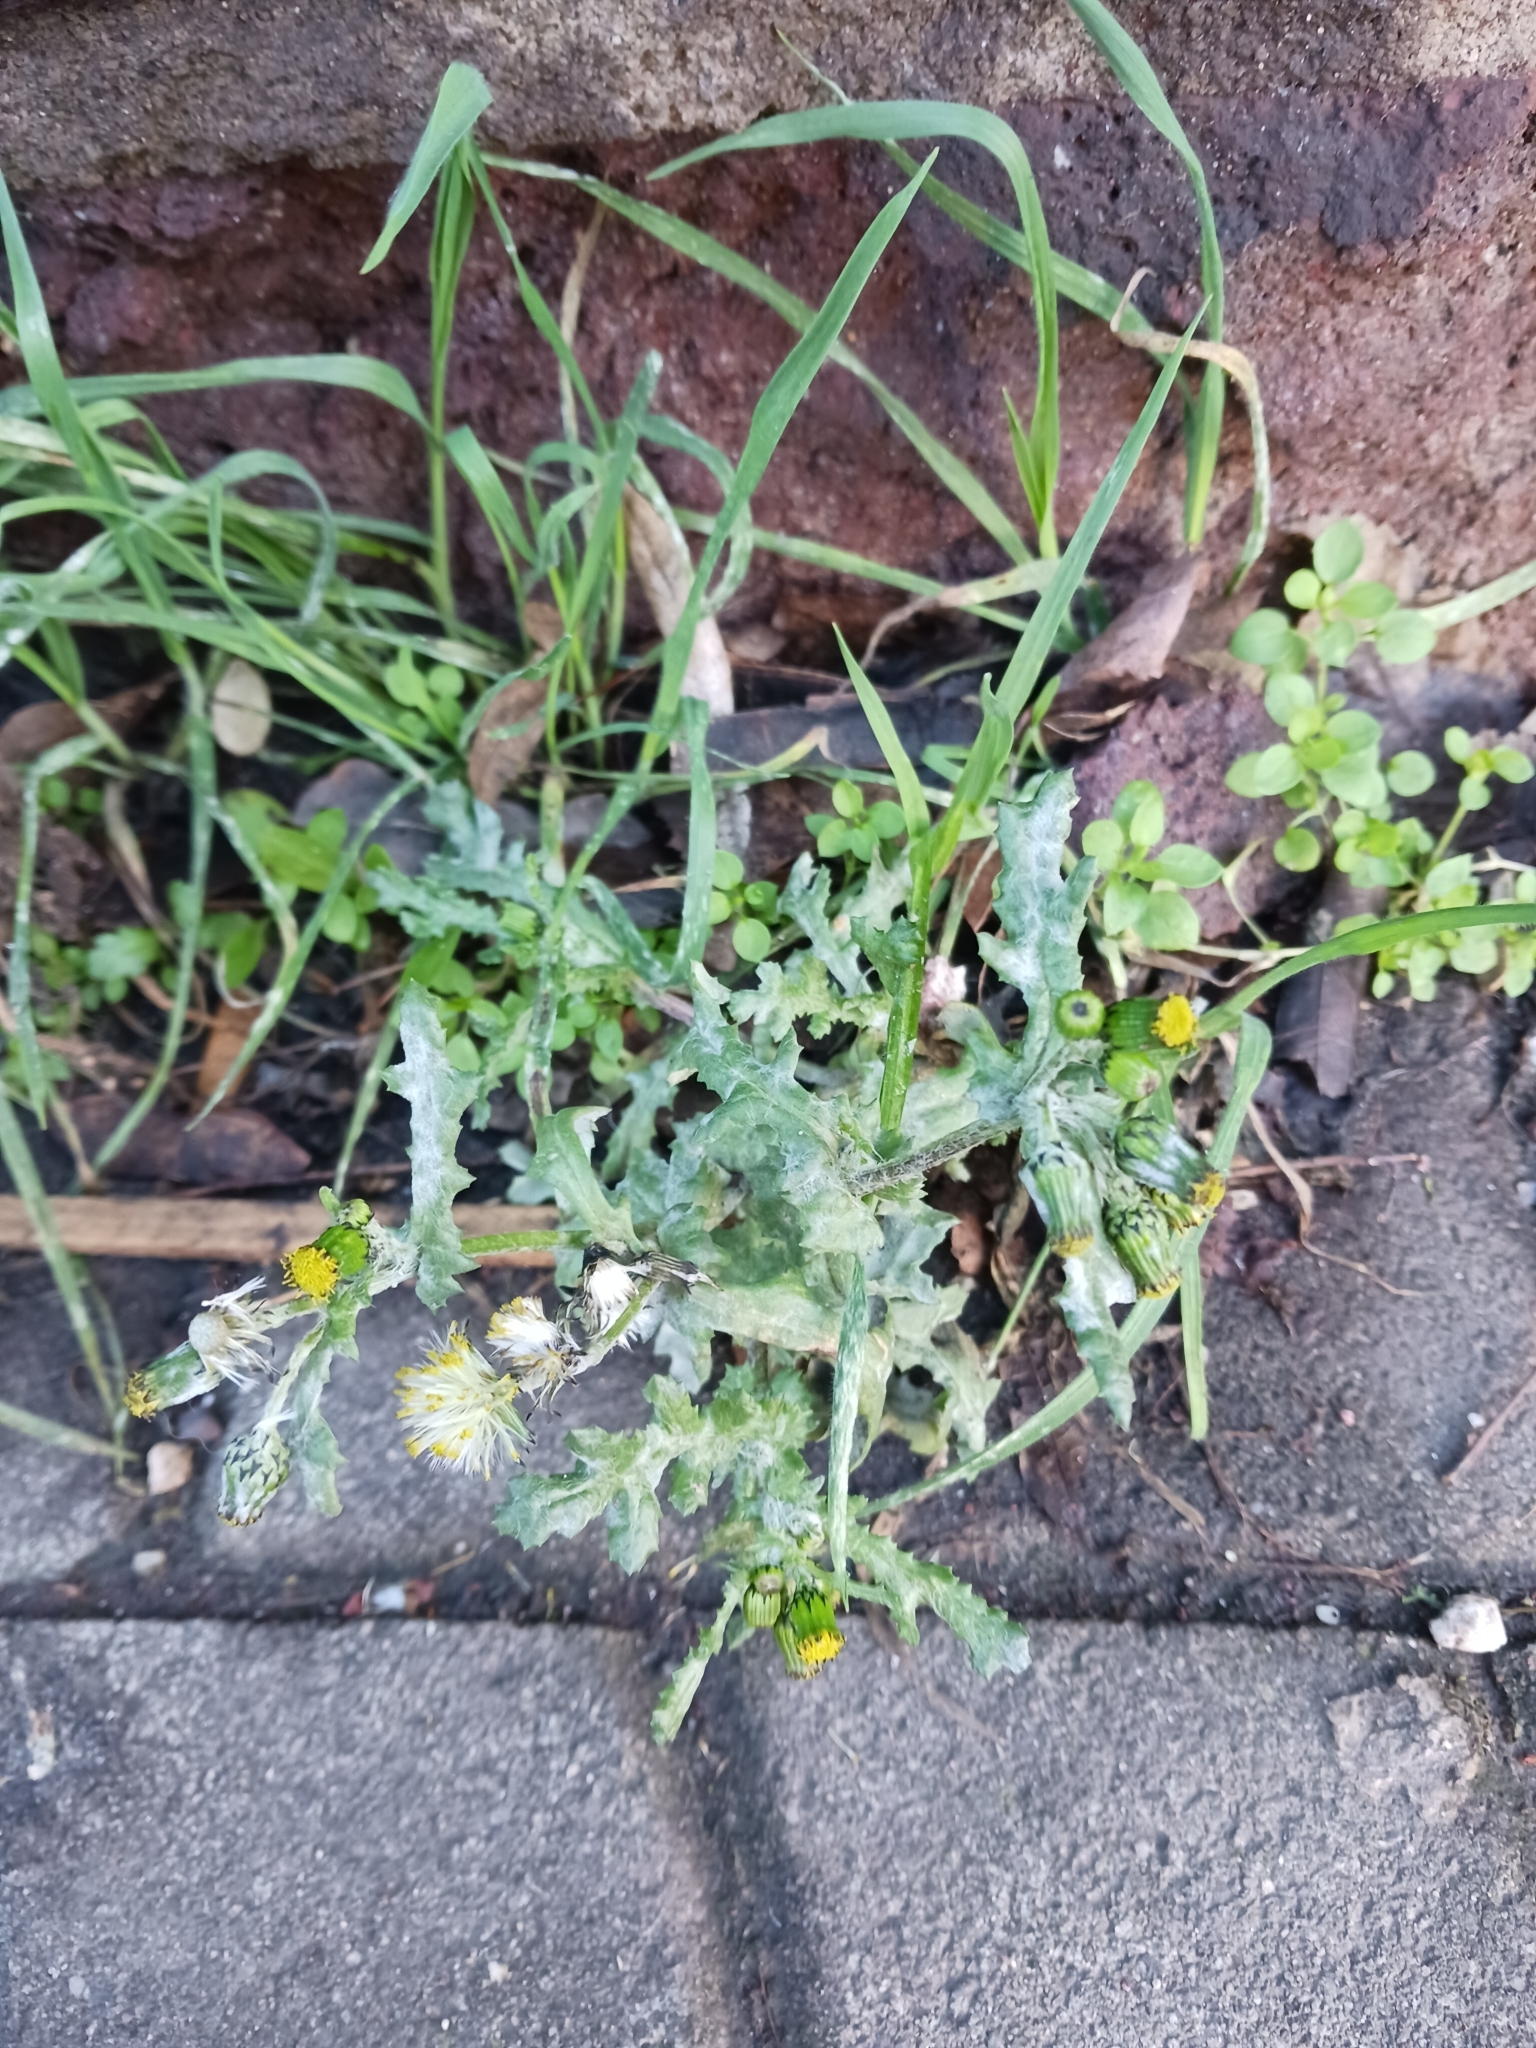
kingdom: Plantae
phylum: Tracheophyta
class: Magnoliopsida
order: Asterales
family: Asteraceae
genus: Senecio
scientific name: Senecio vulgaris
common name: Old-man-in-the-spring
